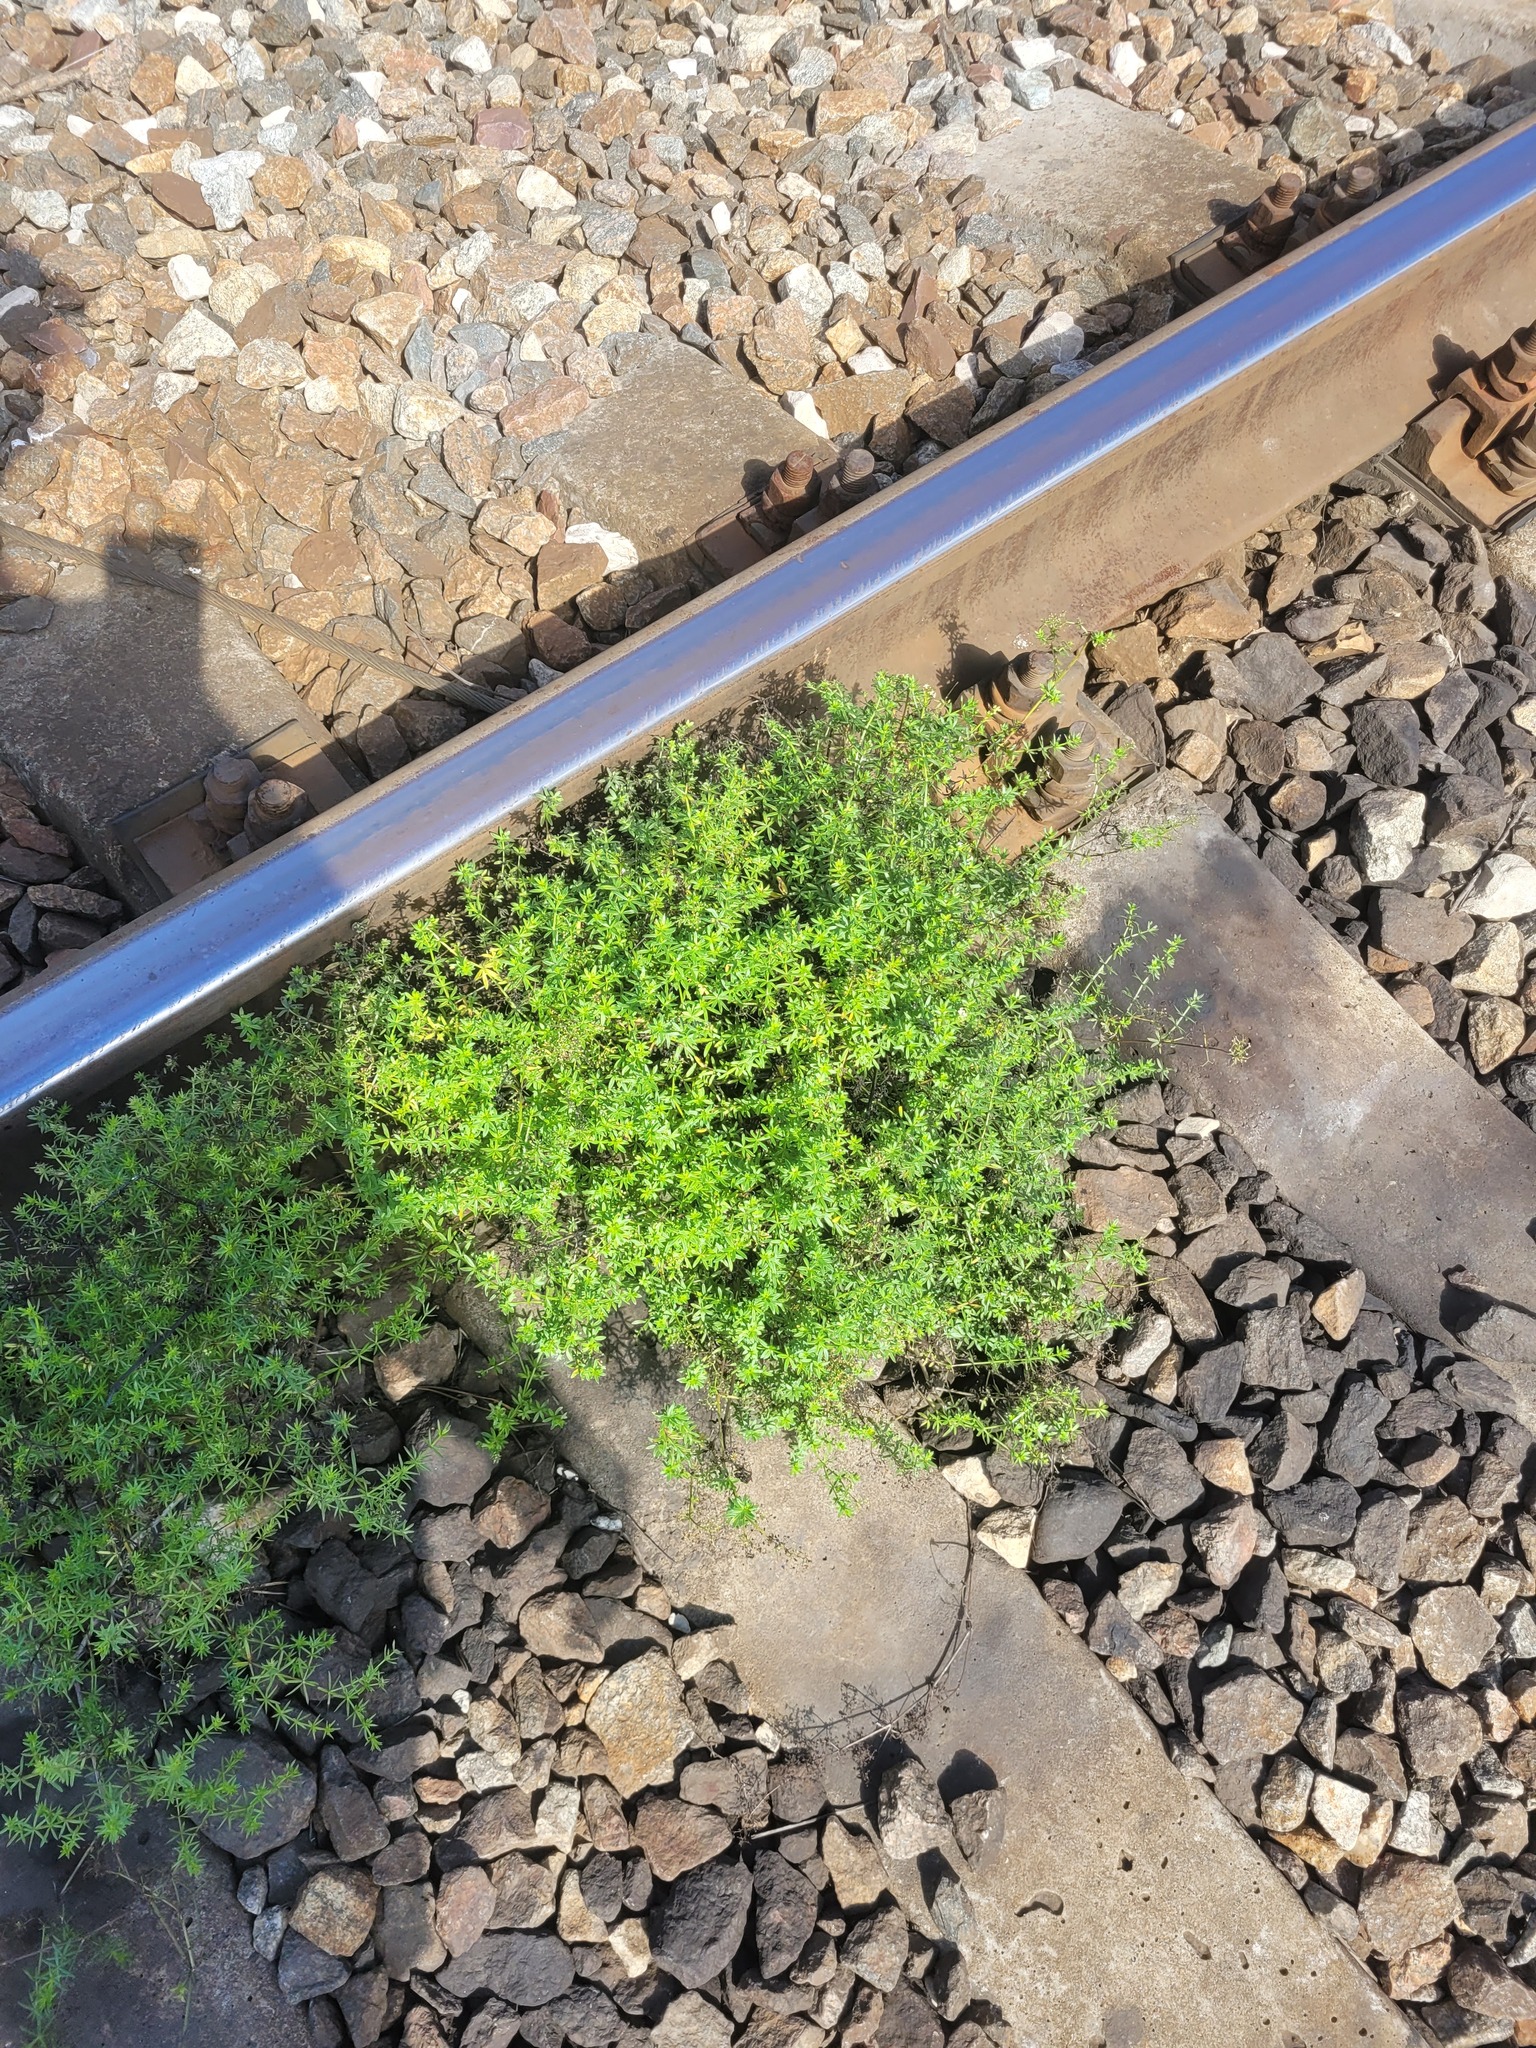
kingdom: Plantae
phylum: Tracheophyta
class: Magnoliopsida
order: Gentianales
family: Rubiaceae
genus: Galium
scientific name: Galium mollugo
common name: Hedge bedstraw
